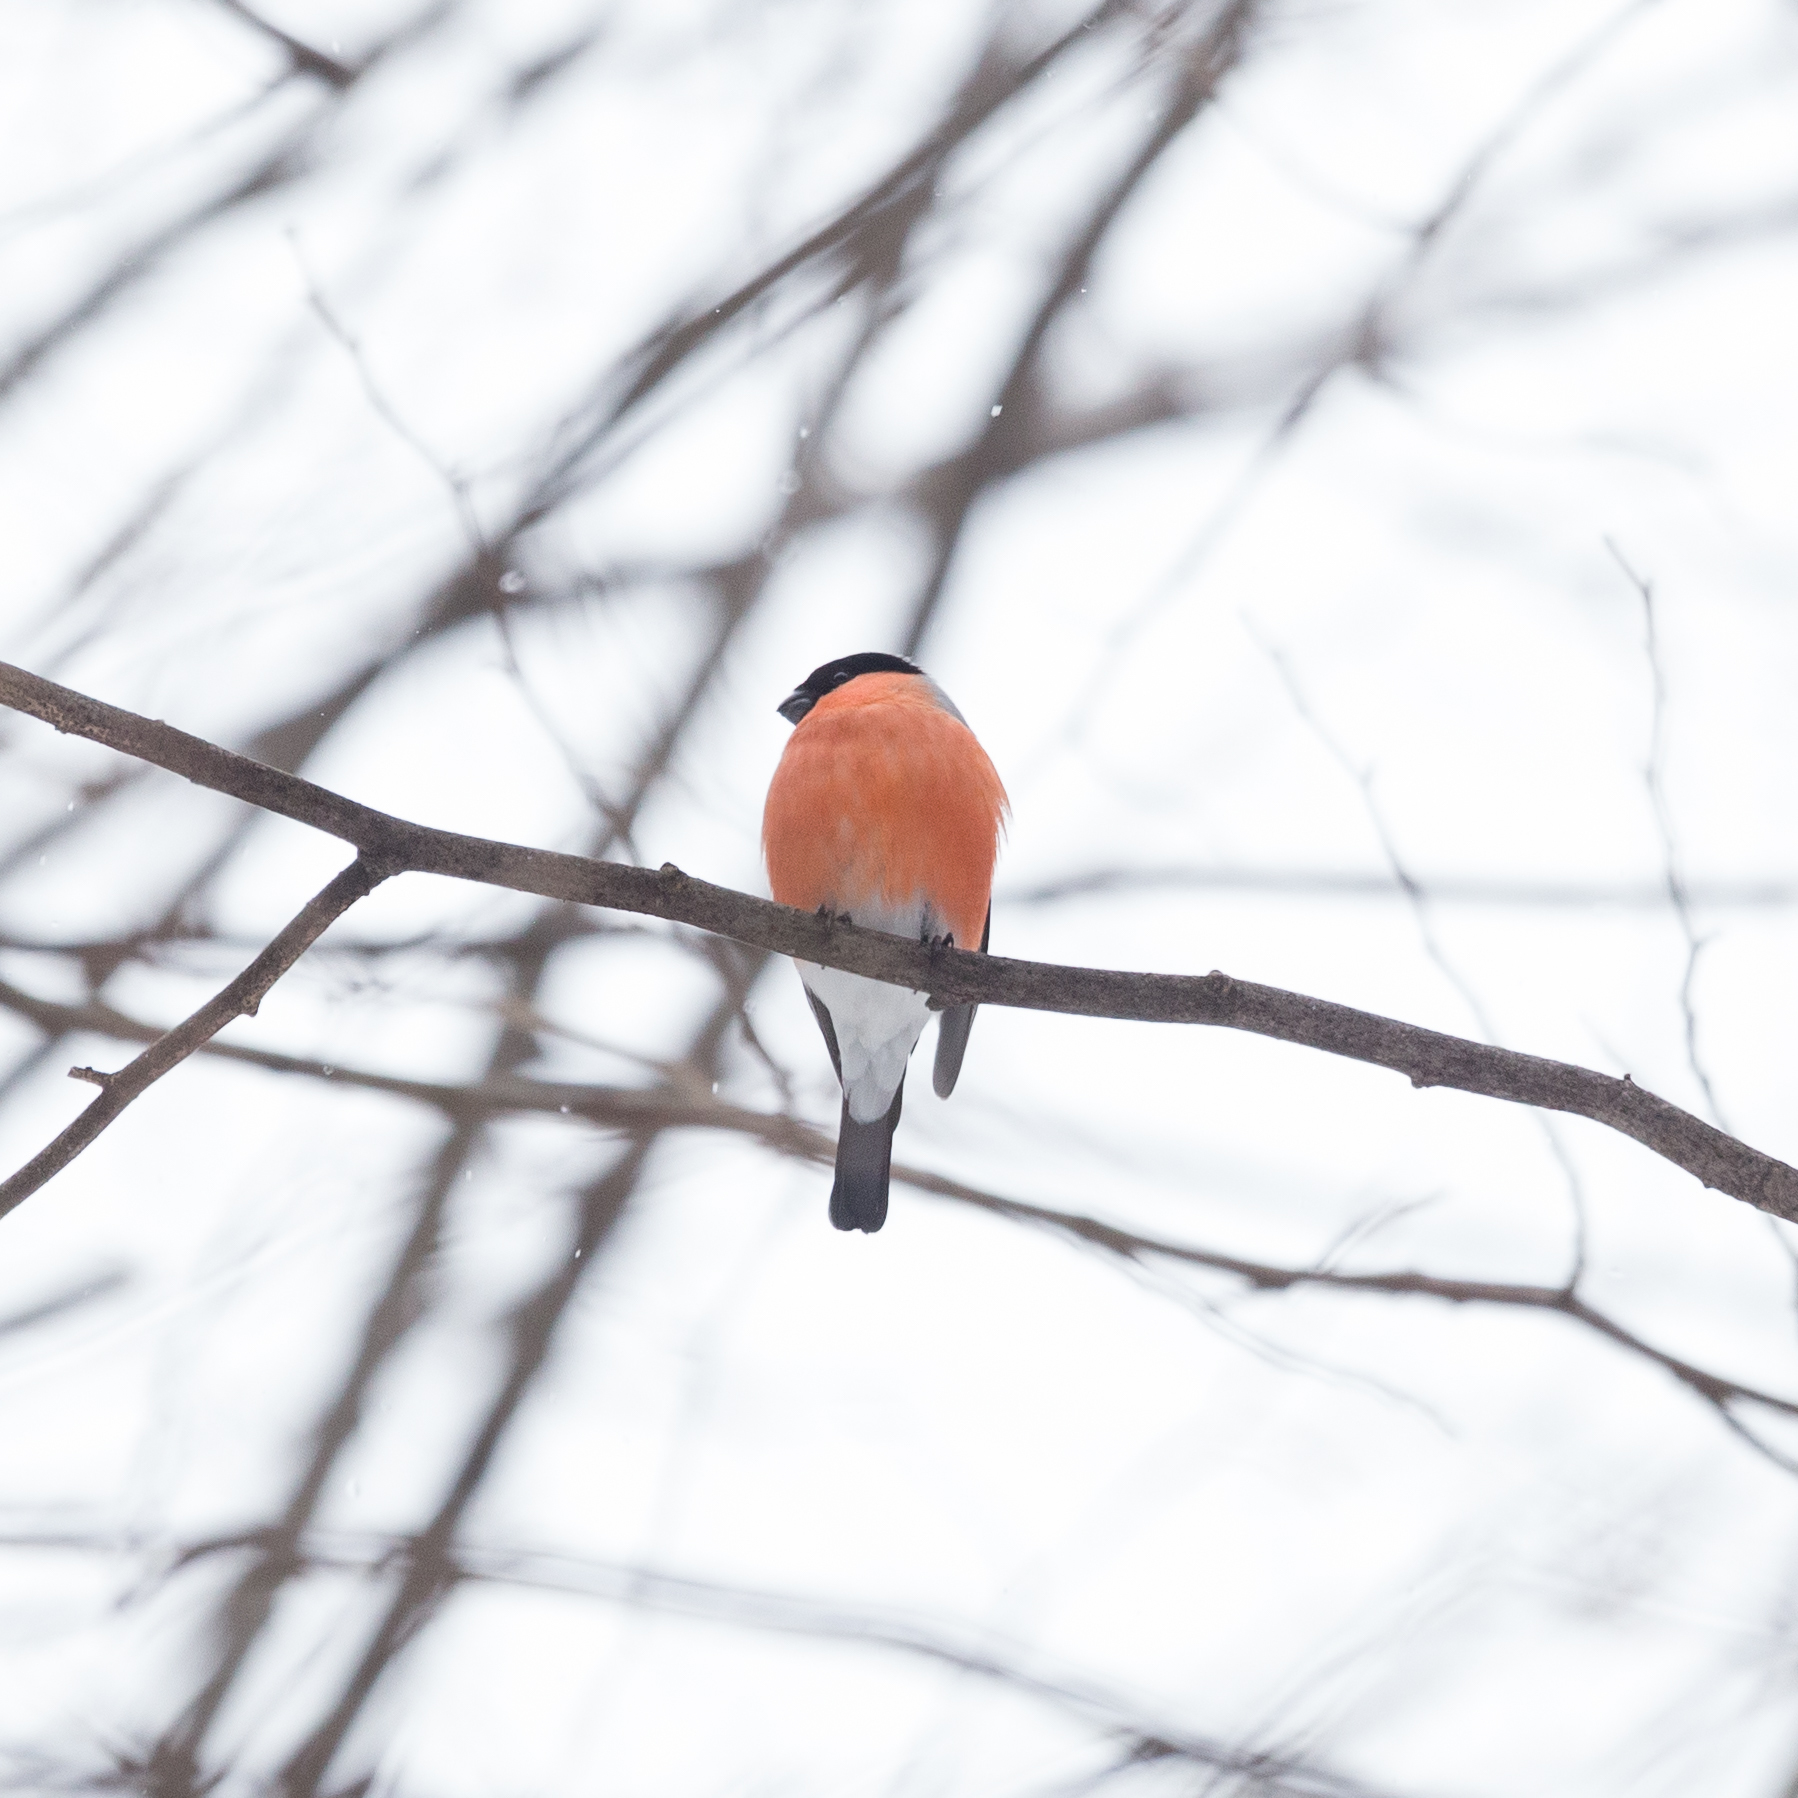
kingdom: Animalia
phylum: Chordata
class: Aves
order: Passeriformes
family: Fringillidae
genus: Pyrrhula
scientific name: Pyrrhula pyrrhula
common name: Eurasian bullfinch
